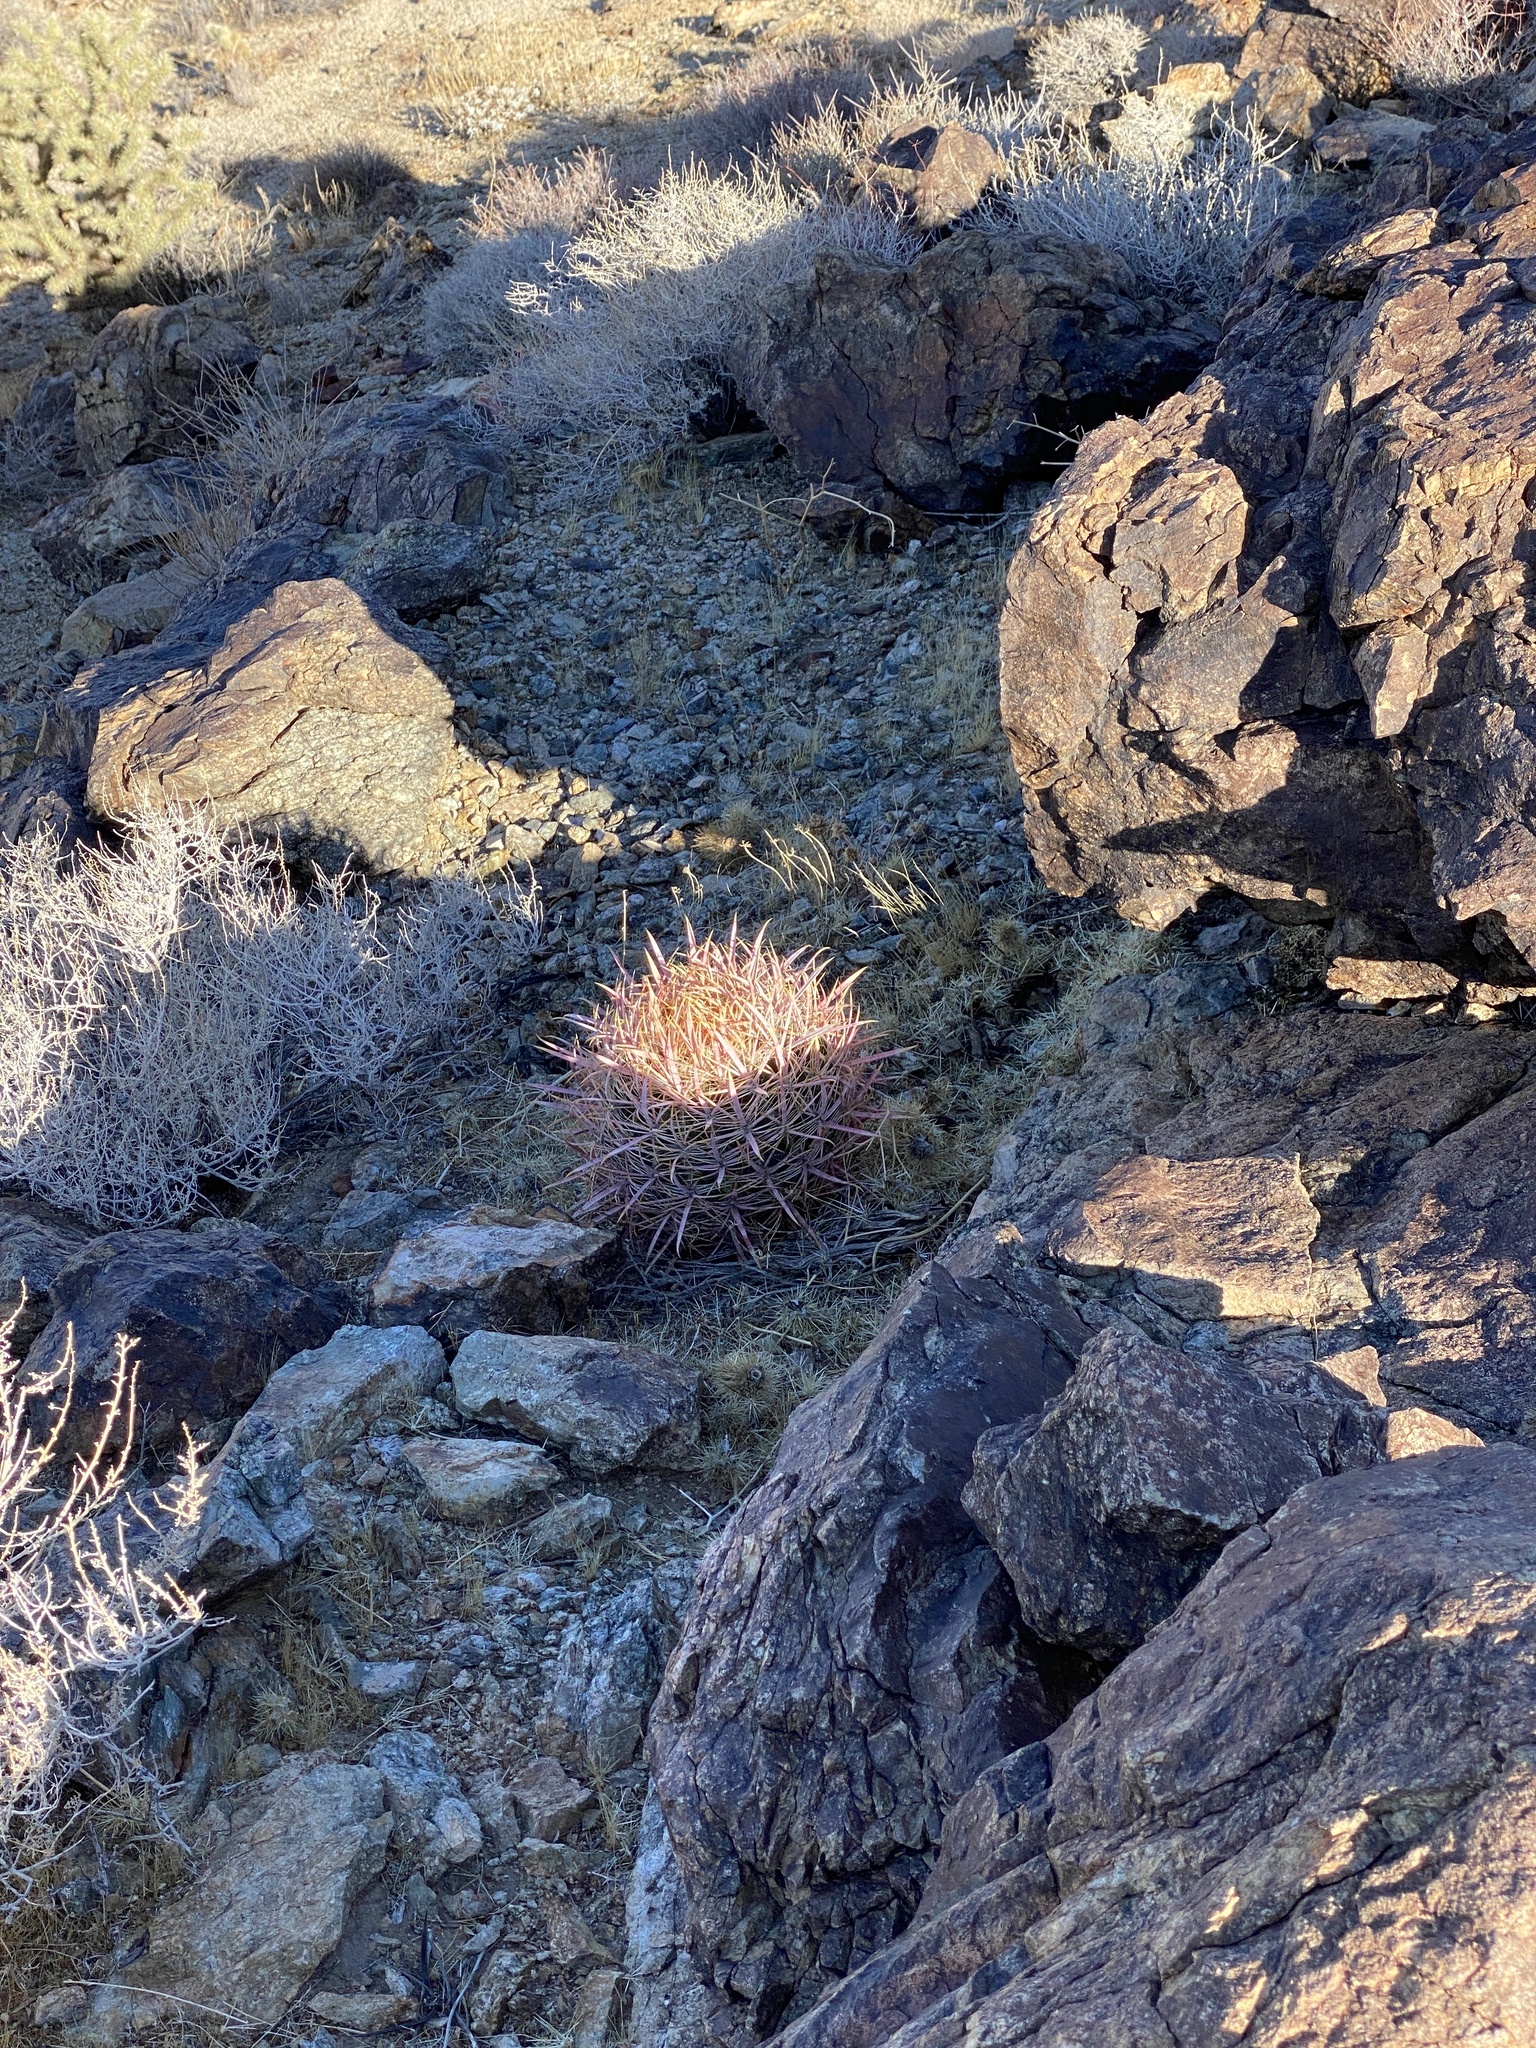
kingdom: Plantae
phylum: Tracheophyta
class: Magnoliopsida
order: Caryophyllales
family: Cactaceae
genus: Ferocactus
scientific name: Ferocactus cylindraceus
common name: California barrel cactus
